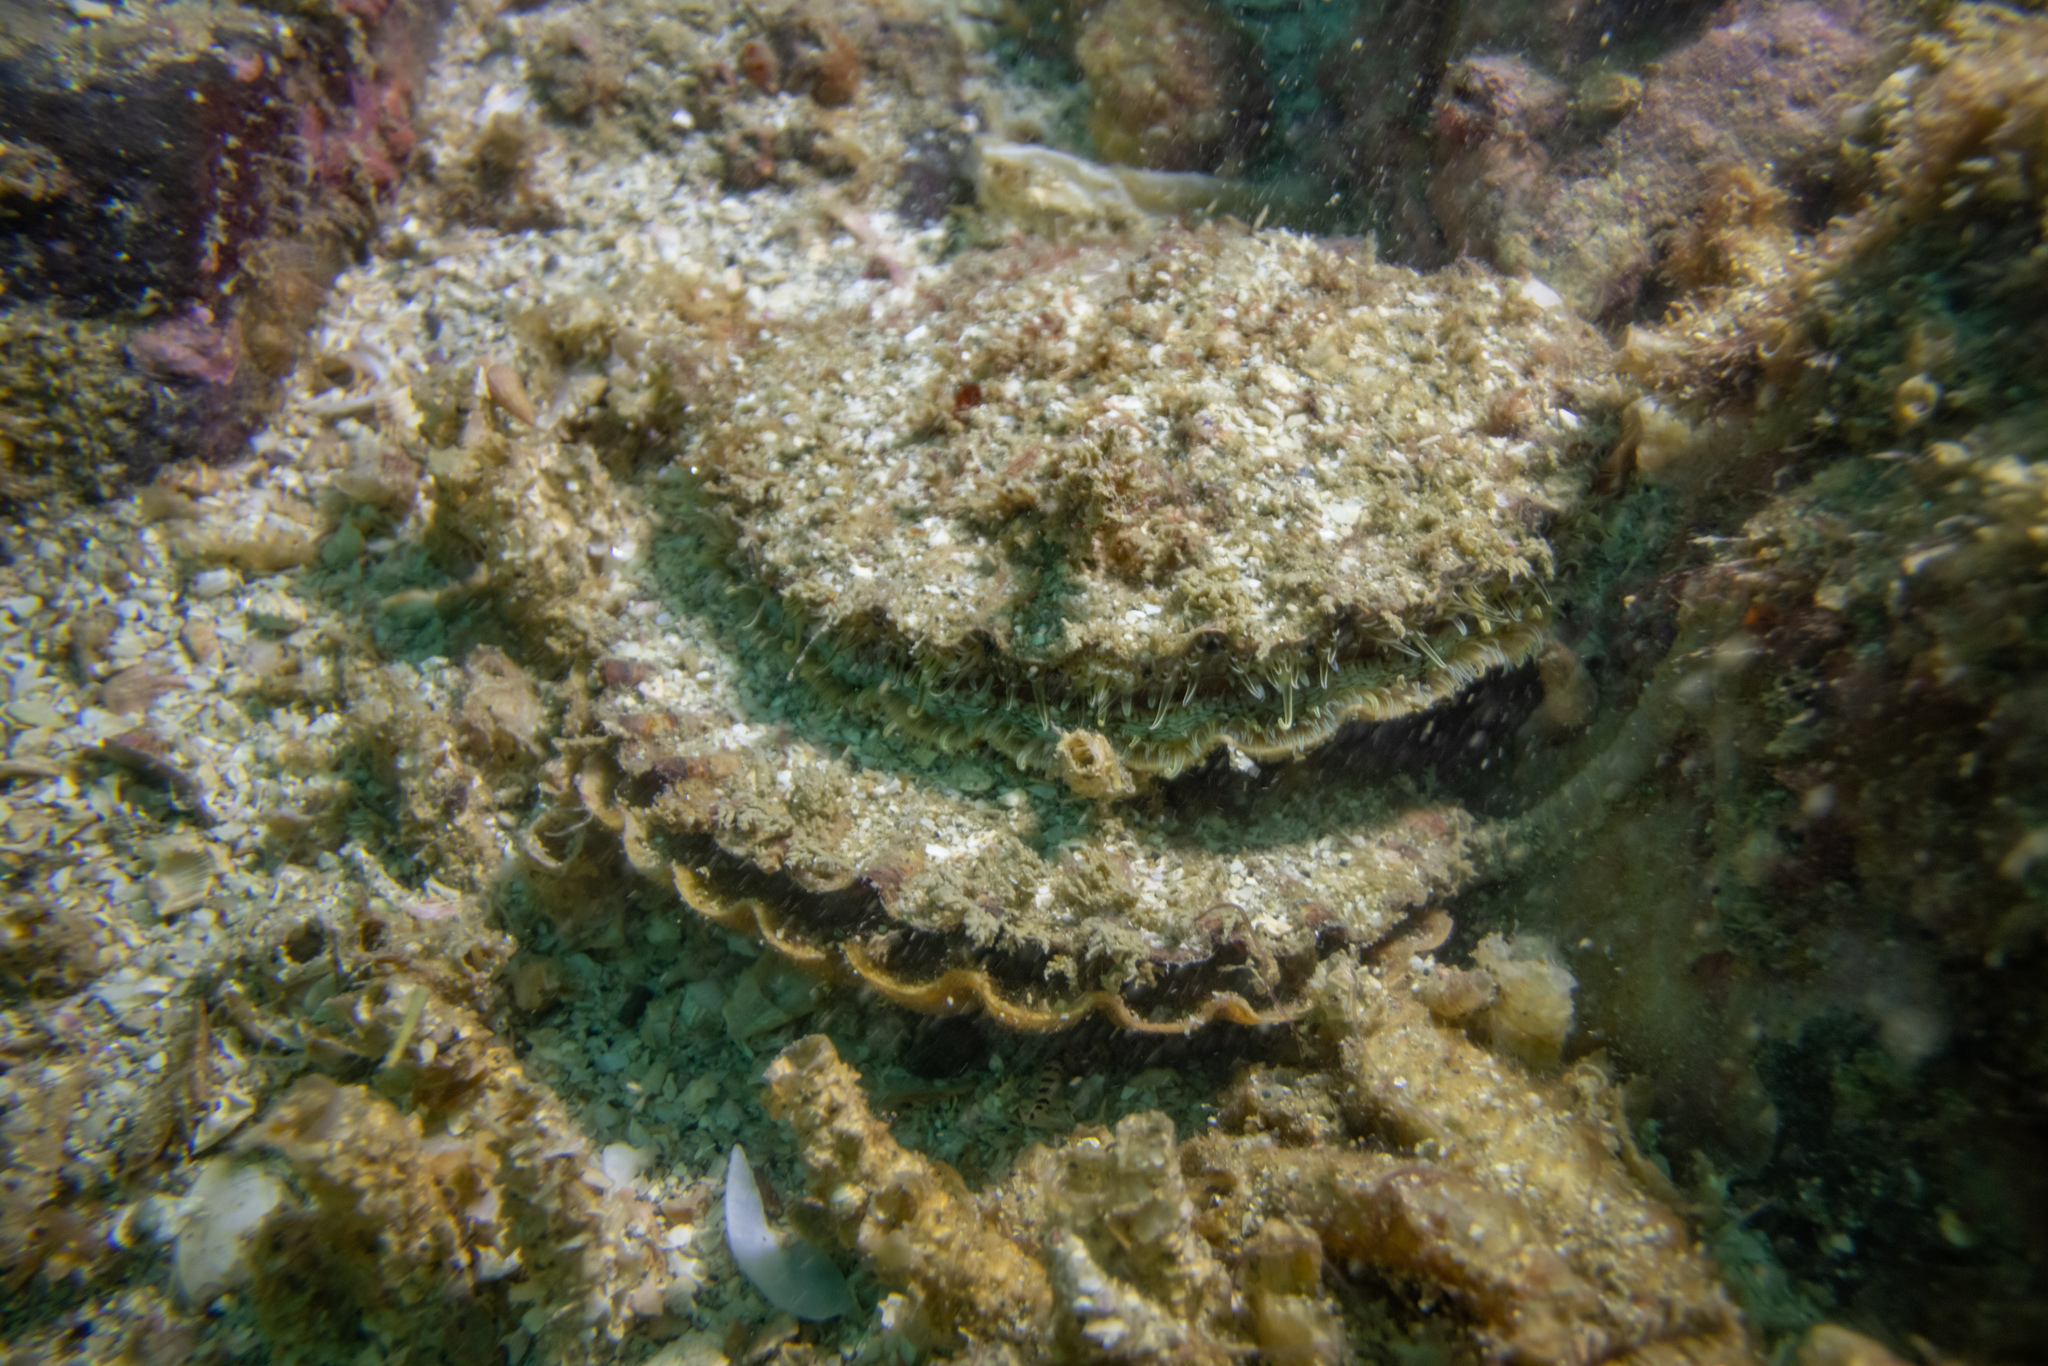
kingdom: Animalia
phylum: Mollusca
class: Bivalvia
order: Pectinida
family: Pectinidae
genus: Pecten
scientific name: Pecten novaezelandiae
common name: New zealand scallop
